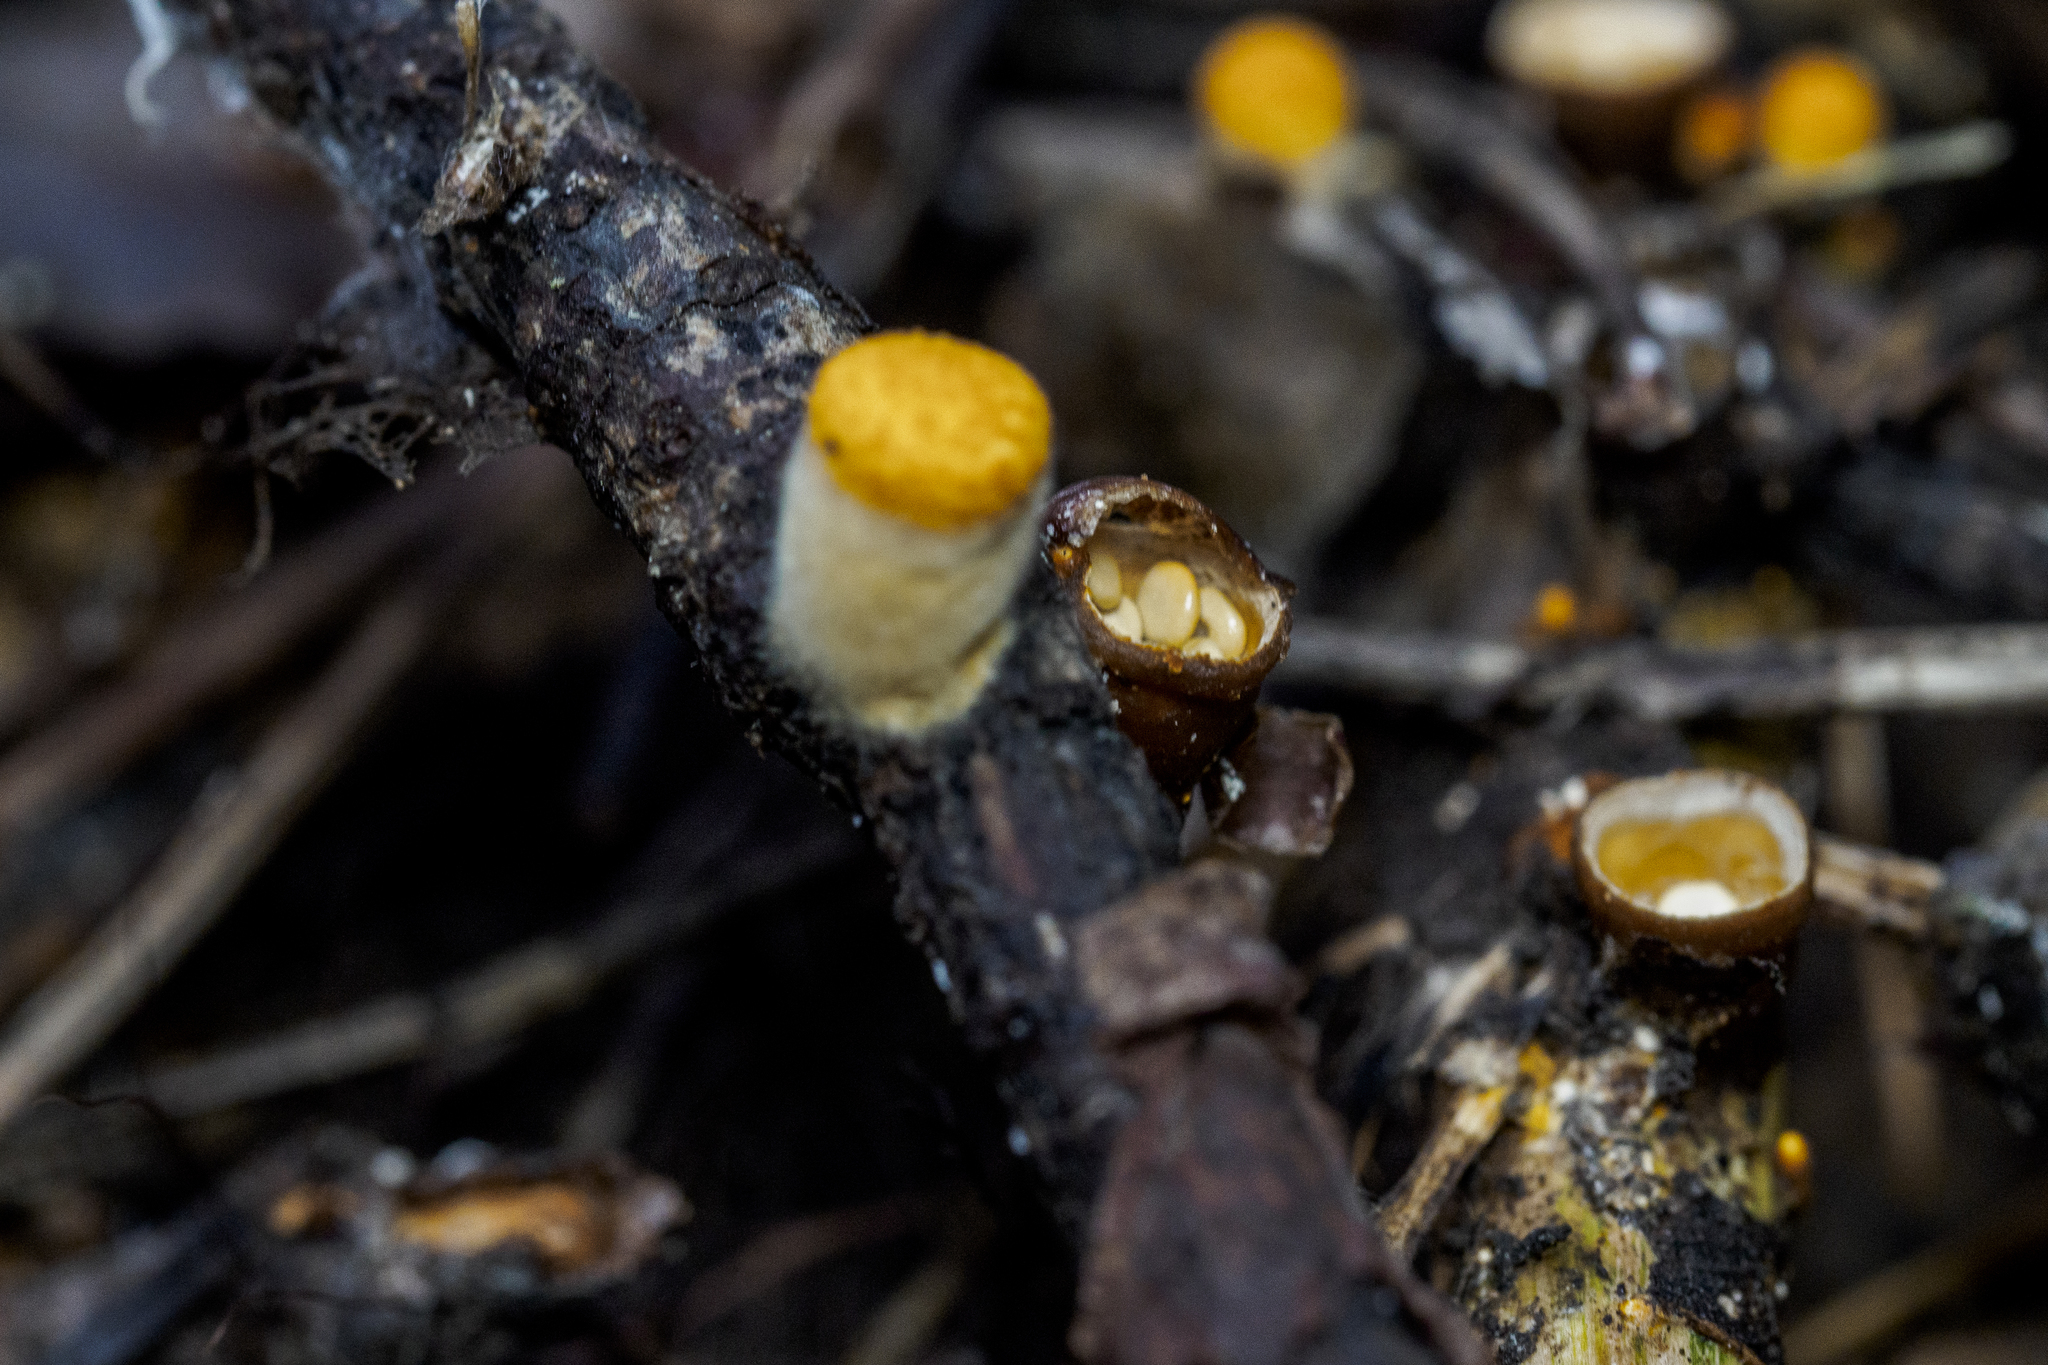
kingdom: Fungi
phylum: Basidiomycota
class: Agaricomycetes
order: Agaricales
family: Nidulariaceae
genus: Crucibulum
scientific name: Crucibulum laeve
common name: Common bird's nest
